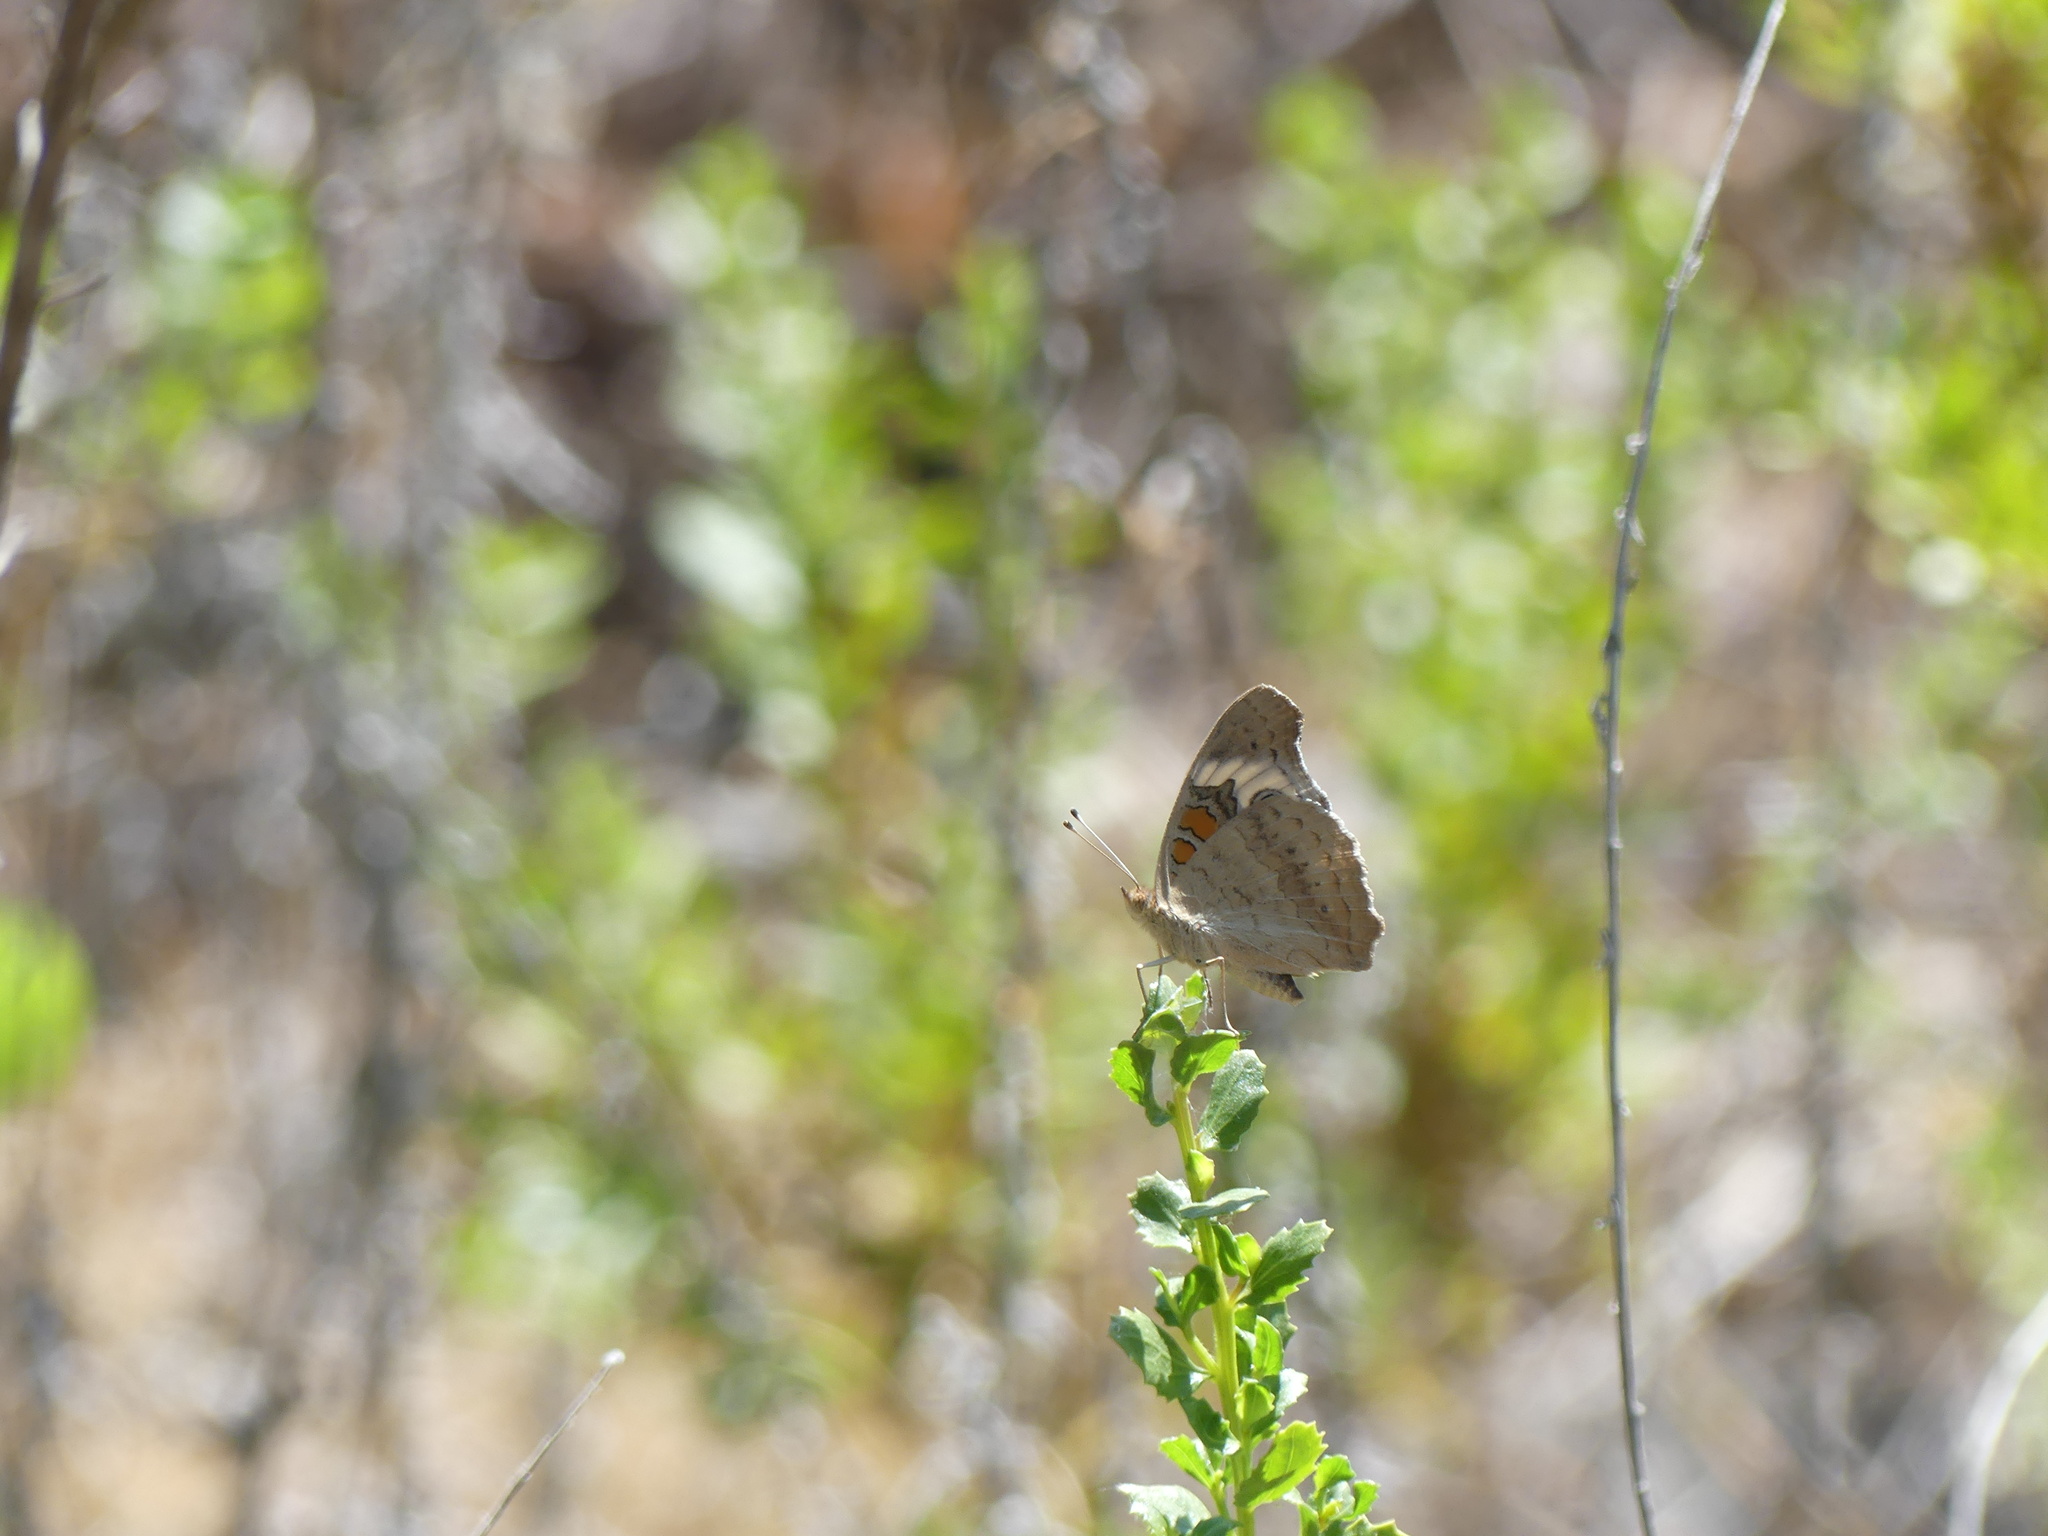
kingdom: Animalia
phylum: Arthropoda
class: Insecta
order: Lepidoptera
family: Nymphalidae
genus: Junonia
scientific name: Junonia grisea
